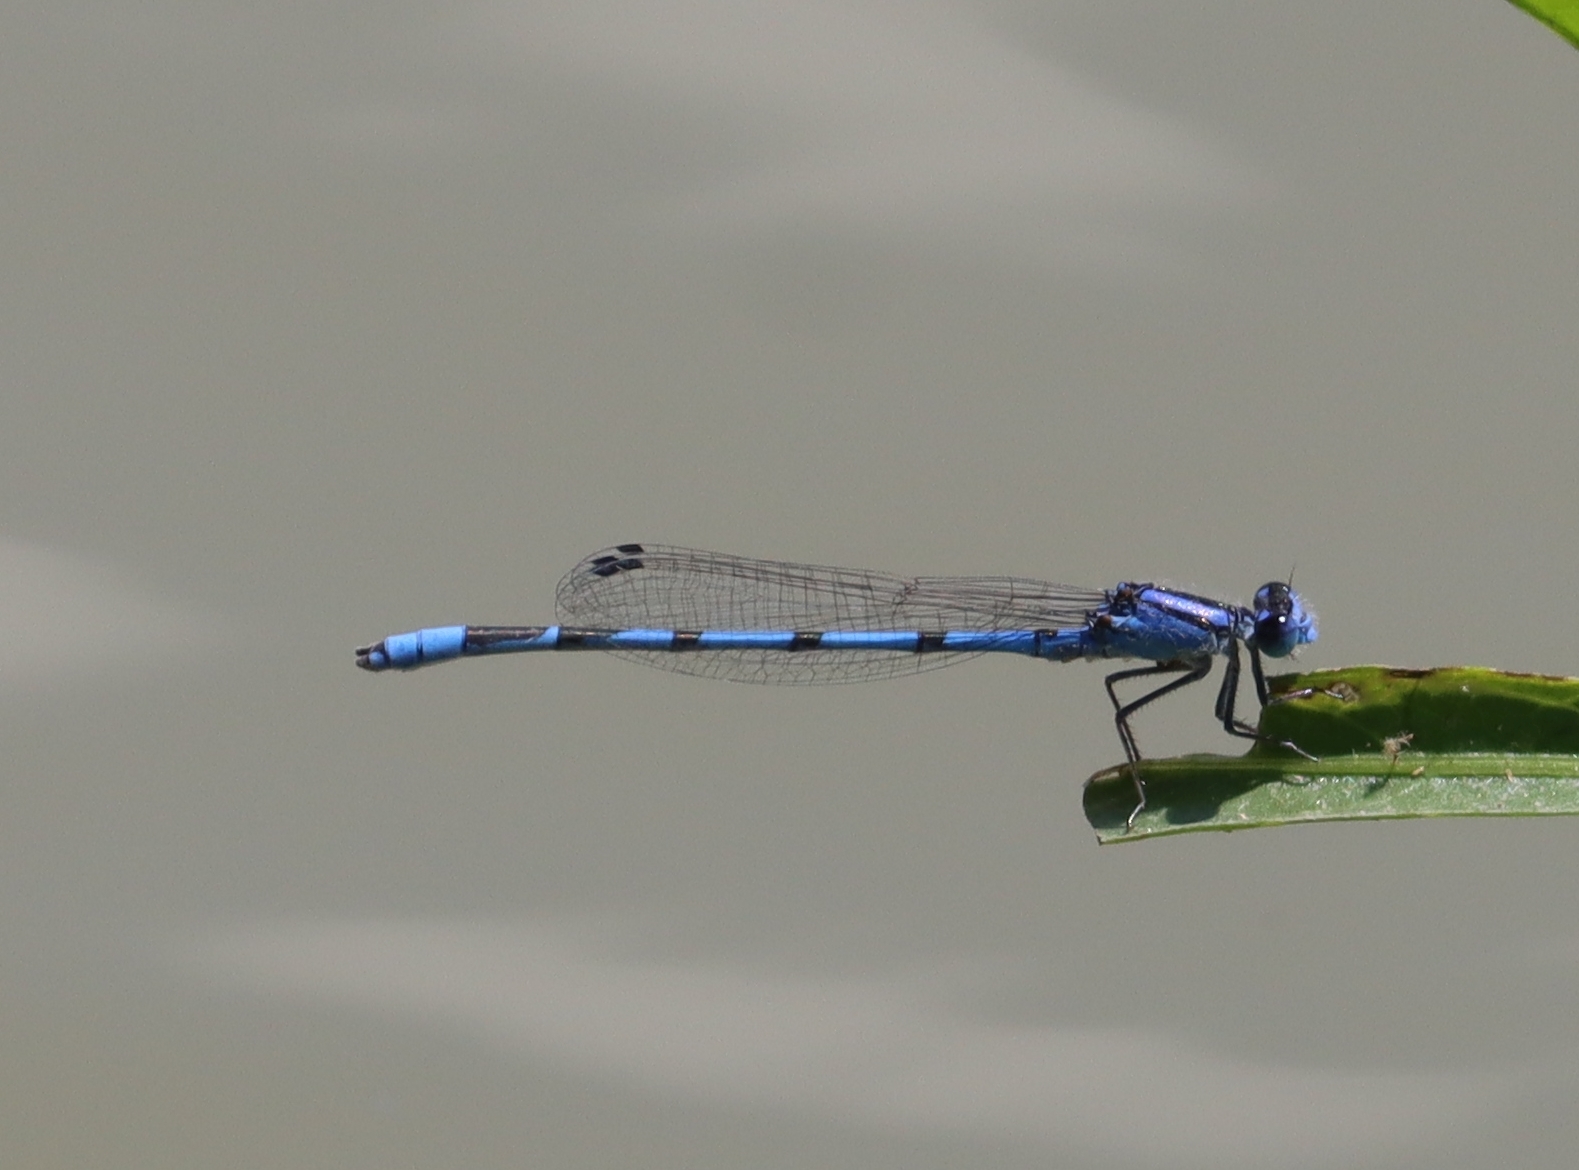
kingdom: Animalia
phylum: Arthropoda
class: Insecta
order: Odonata
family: Coenagrionidae
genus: Enallagma
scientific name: Enallagma civile
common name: Damselfly
